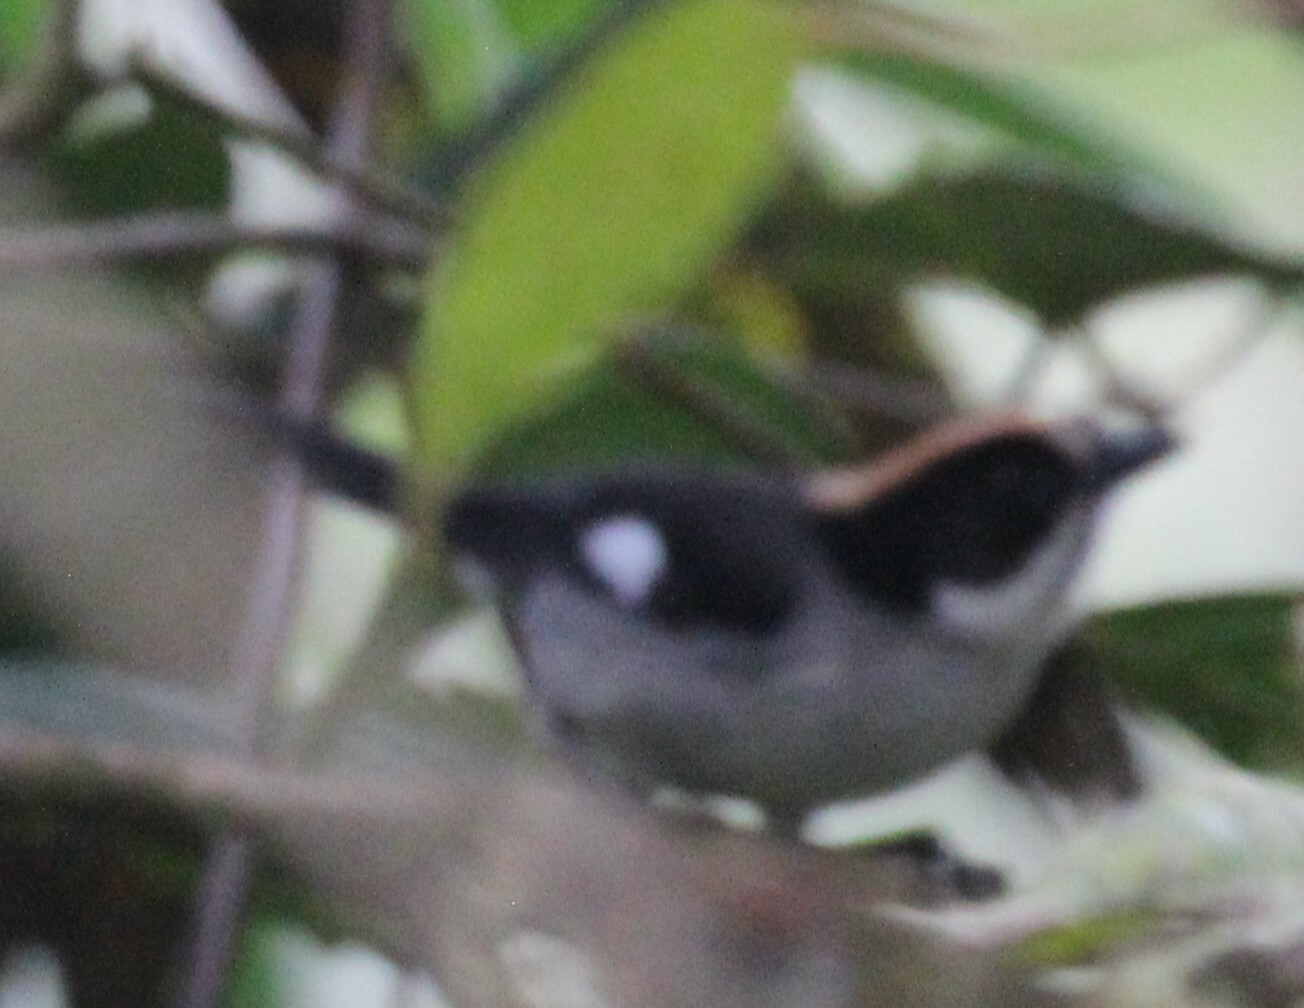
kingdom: Animalia
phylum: Chordata
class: Aves
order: Passeriformes
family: Passerellidae
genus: Atlapetes
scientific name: Atlapetes leucopterus
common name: White-winged brushfinch
